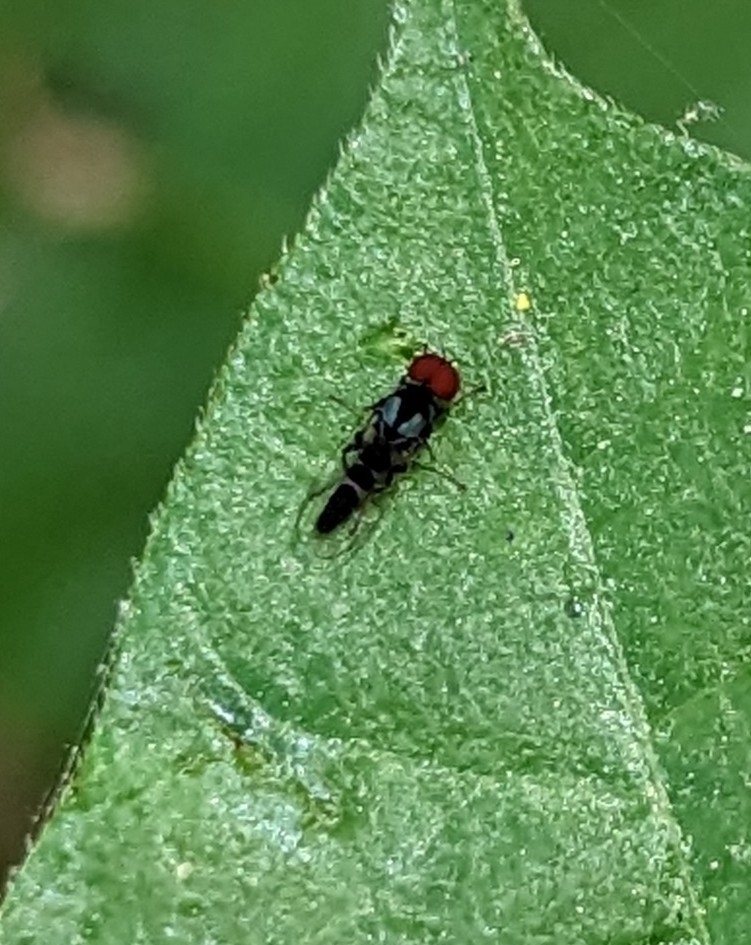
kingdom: Animalia
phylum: Arthropoda
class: Insecta
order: Diptera
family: Platypezidae
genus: Bertamyia
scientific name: Bertamyia notata
